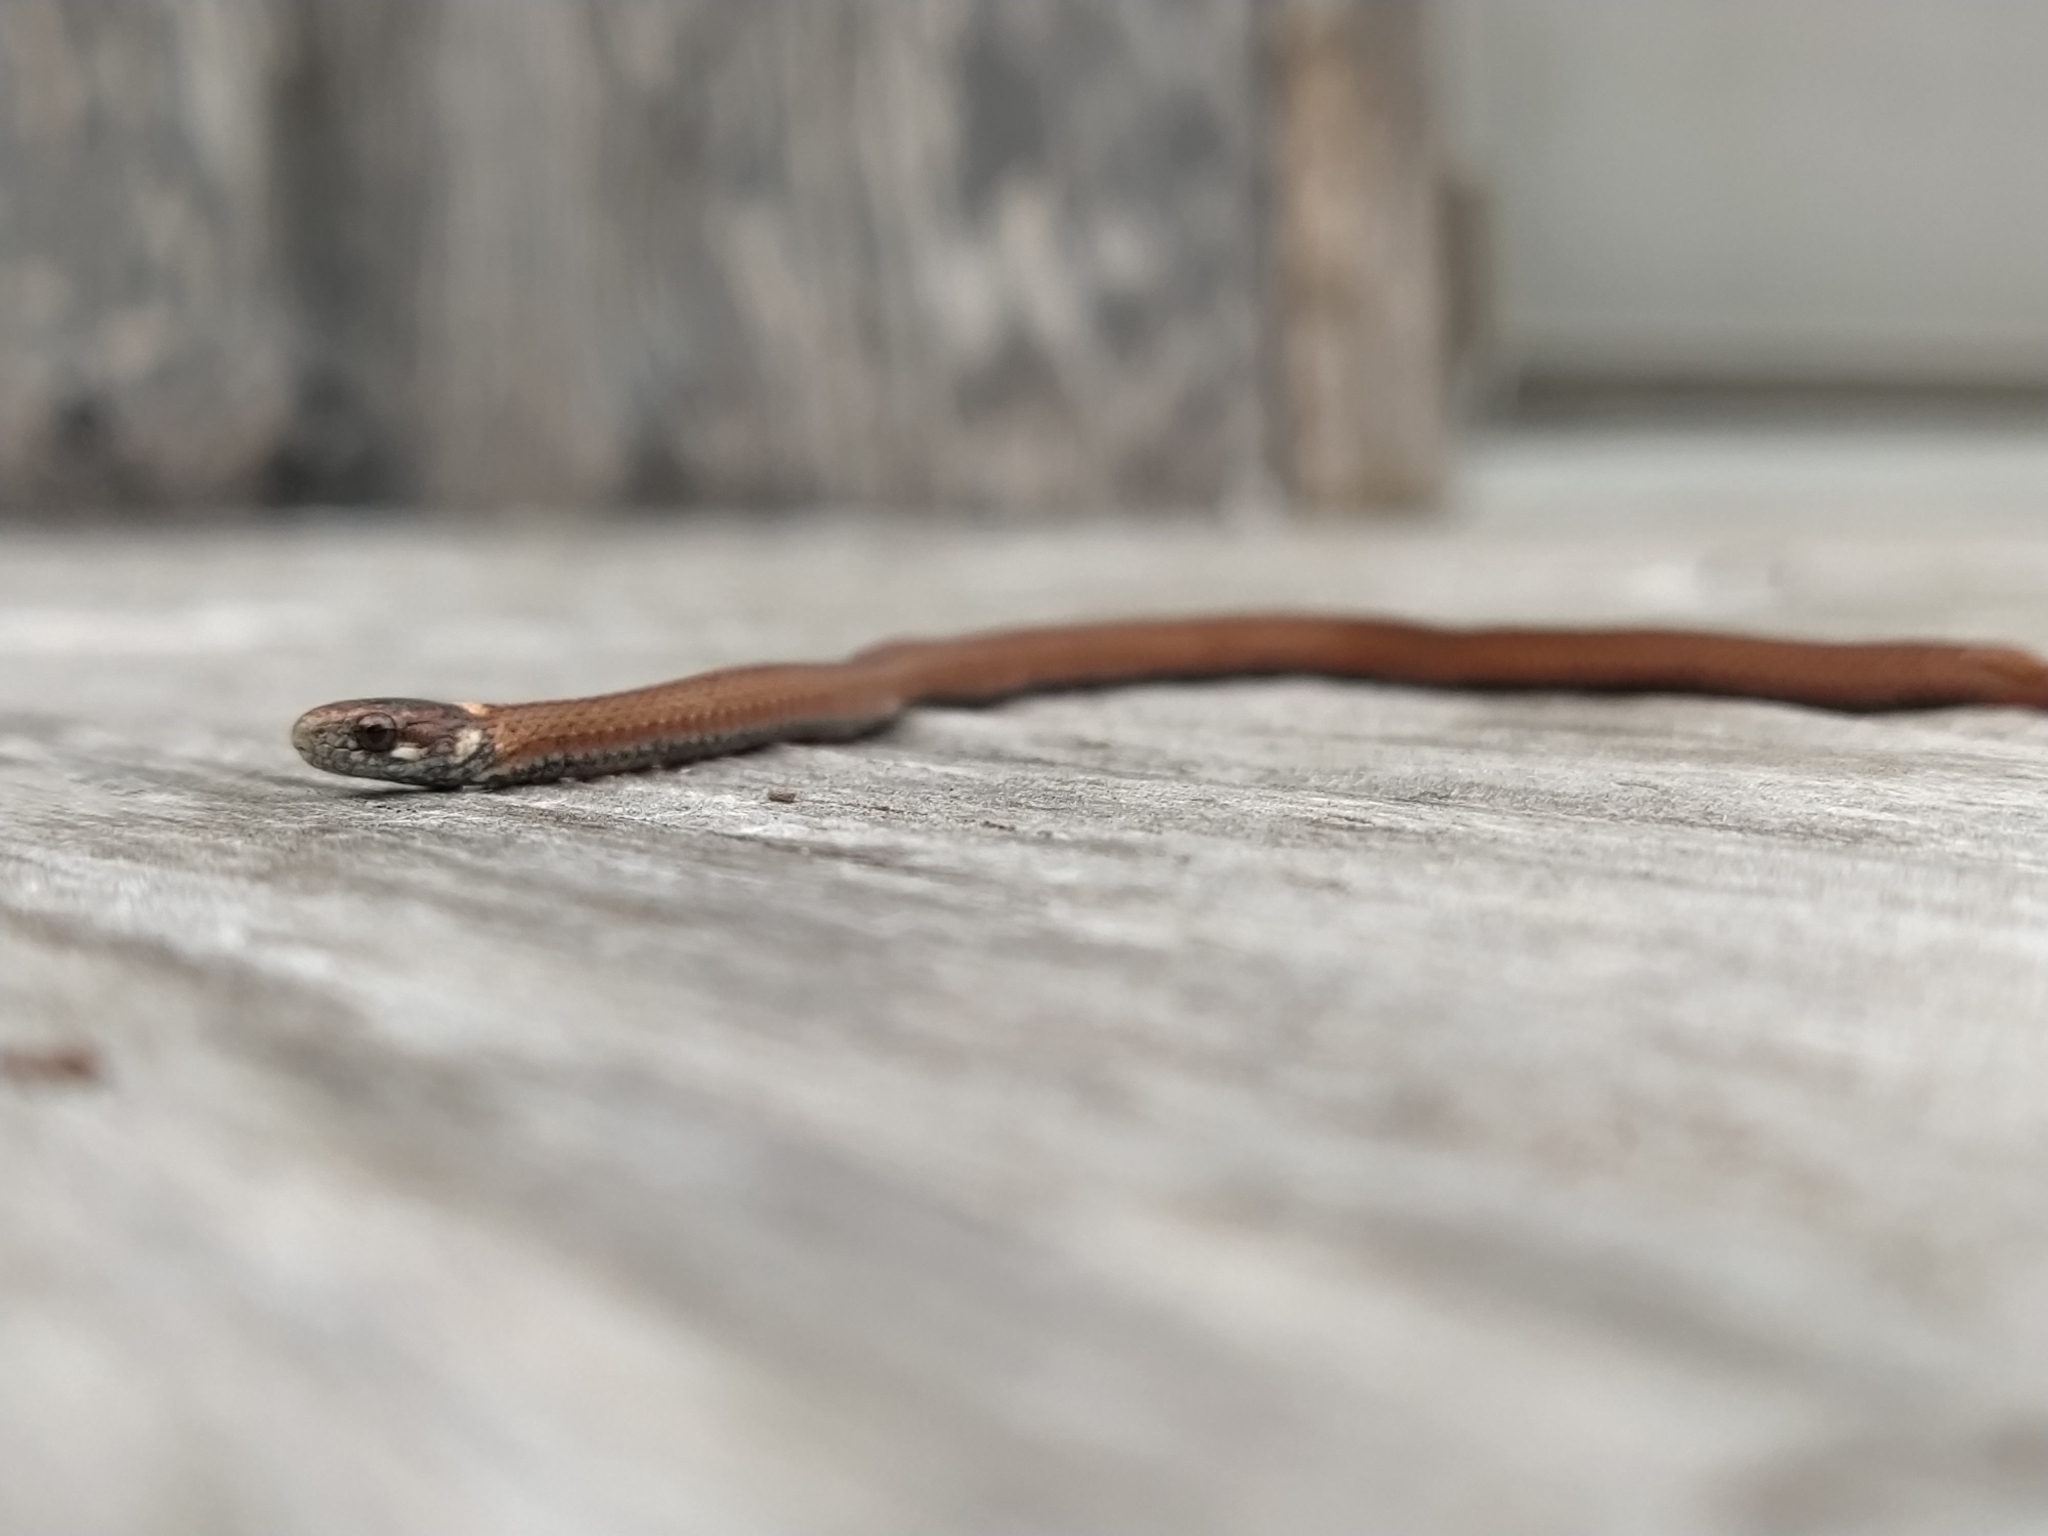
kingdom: Animalia
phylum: Chordata
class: Squamata
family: Colubridae
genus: Storeria
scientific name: Storeria occipitomaculata
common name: Redbelly snake
